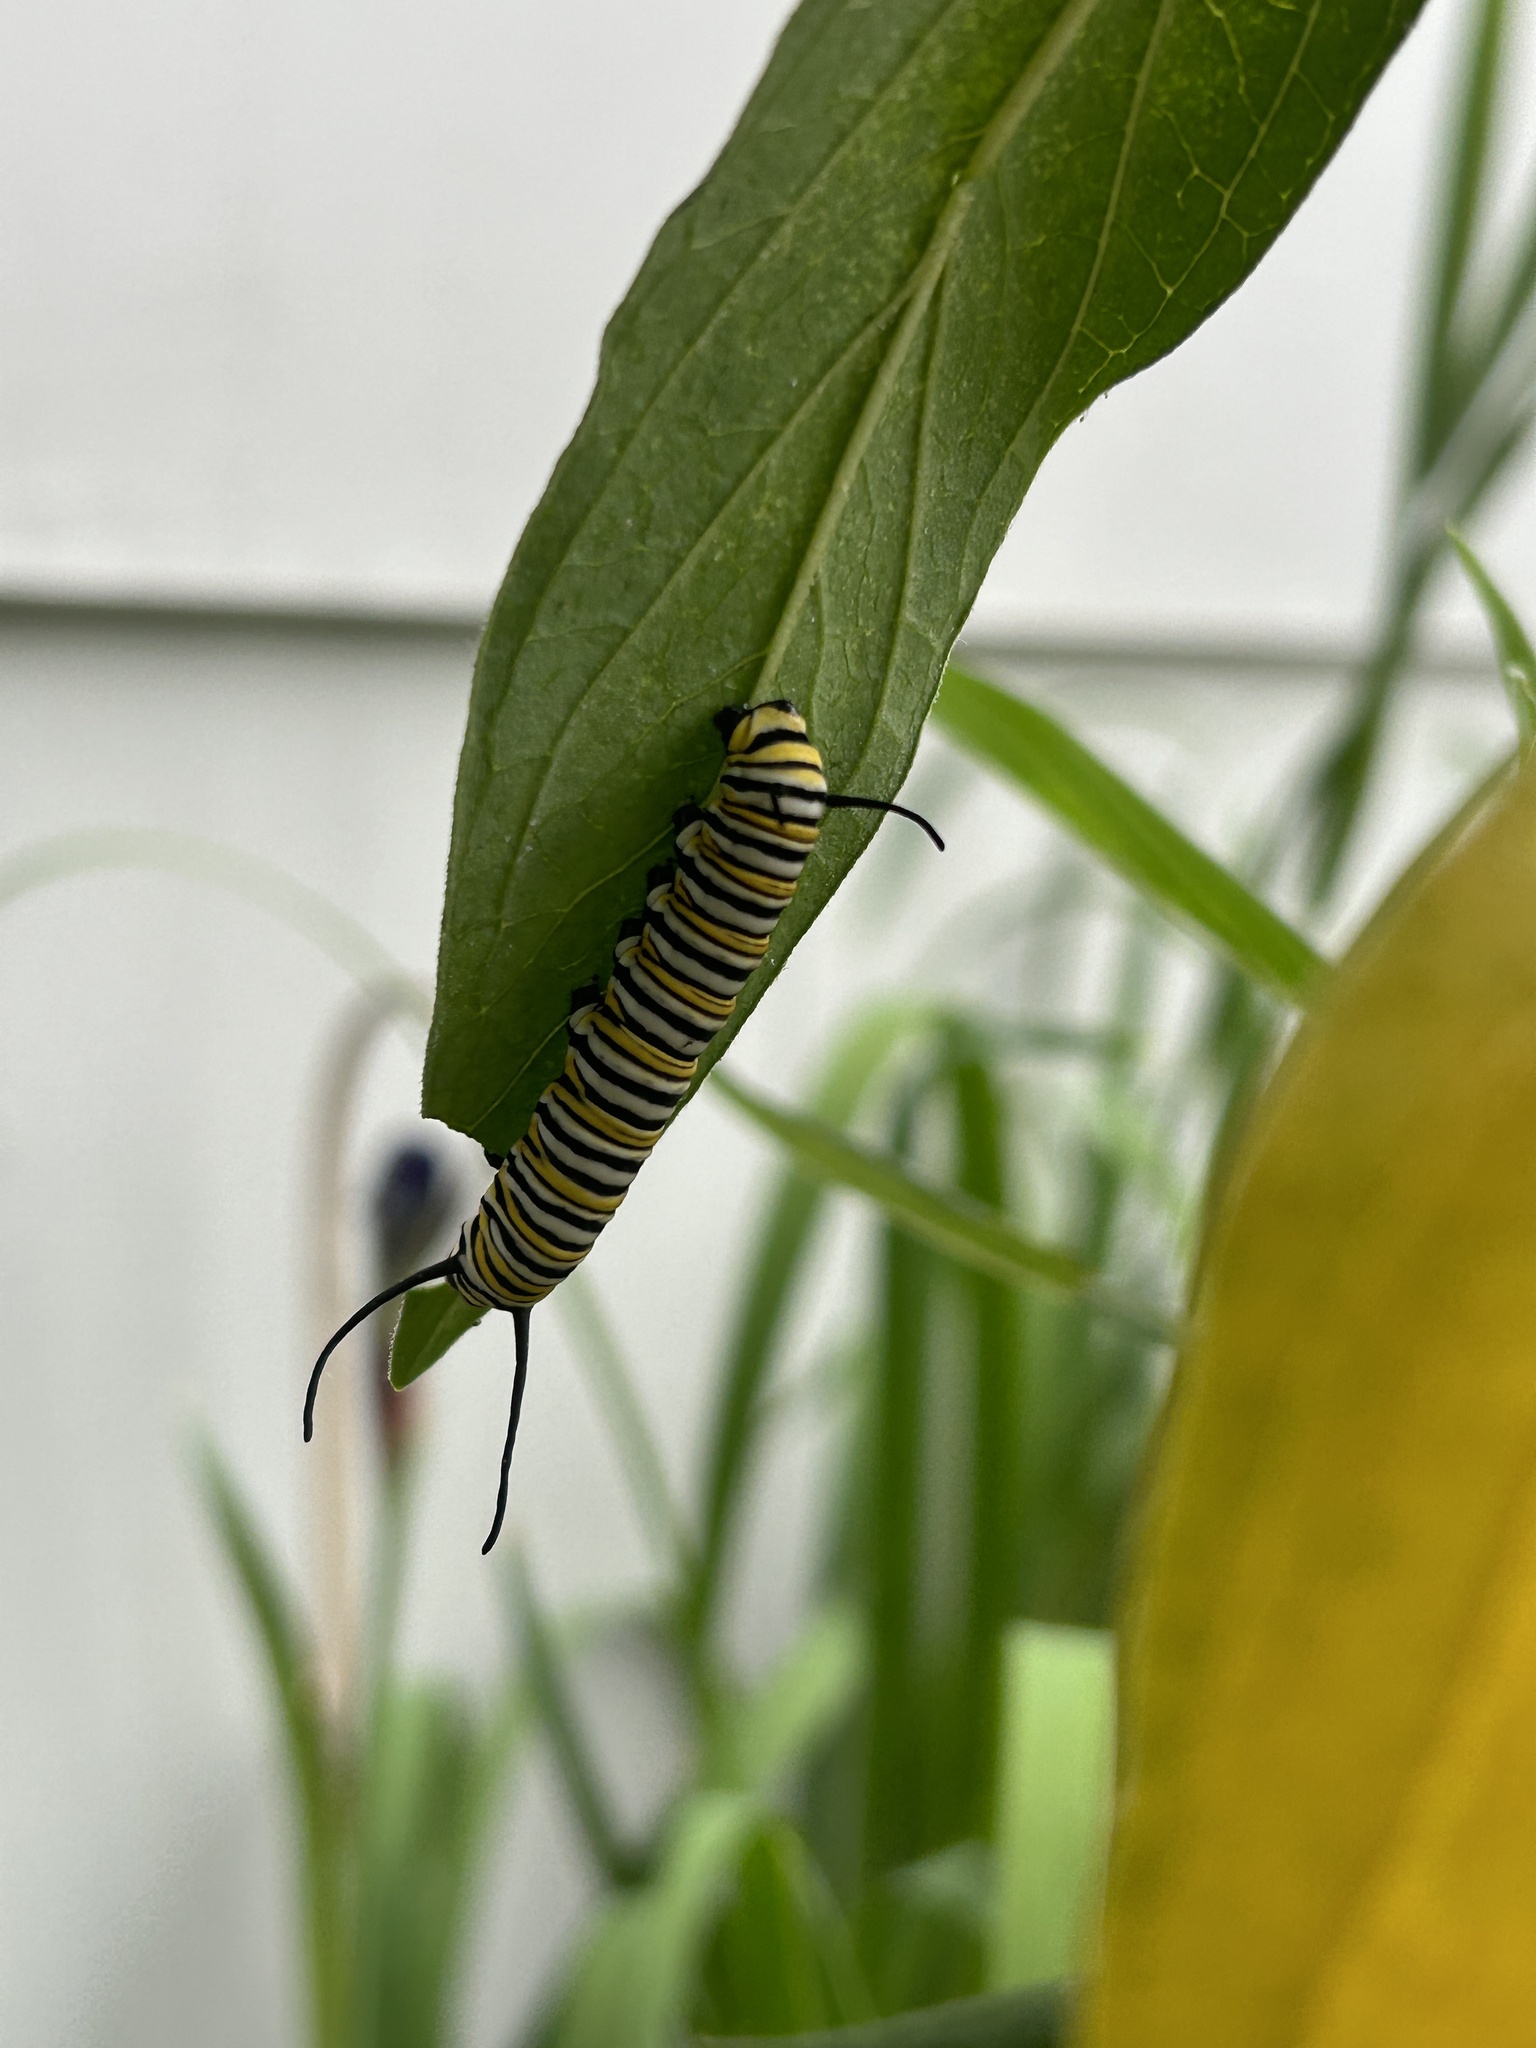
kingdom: Animalia
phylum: Arthropoda
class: Insecta
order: Lepidoptera
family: Nymphalidae
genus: Danaus
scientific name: Danaus plexippus
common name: Monarch
